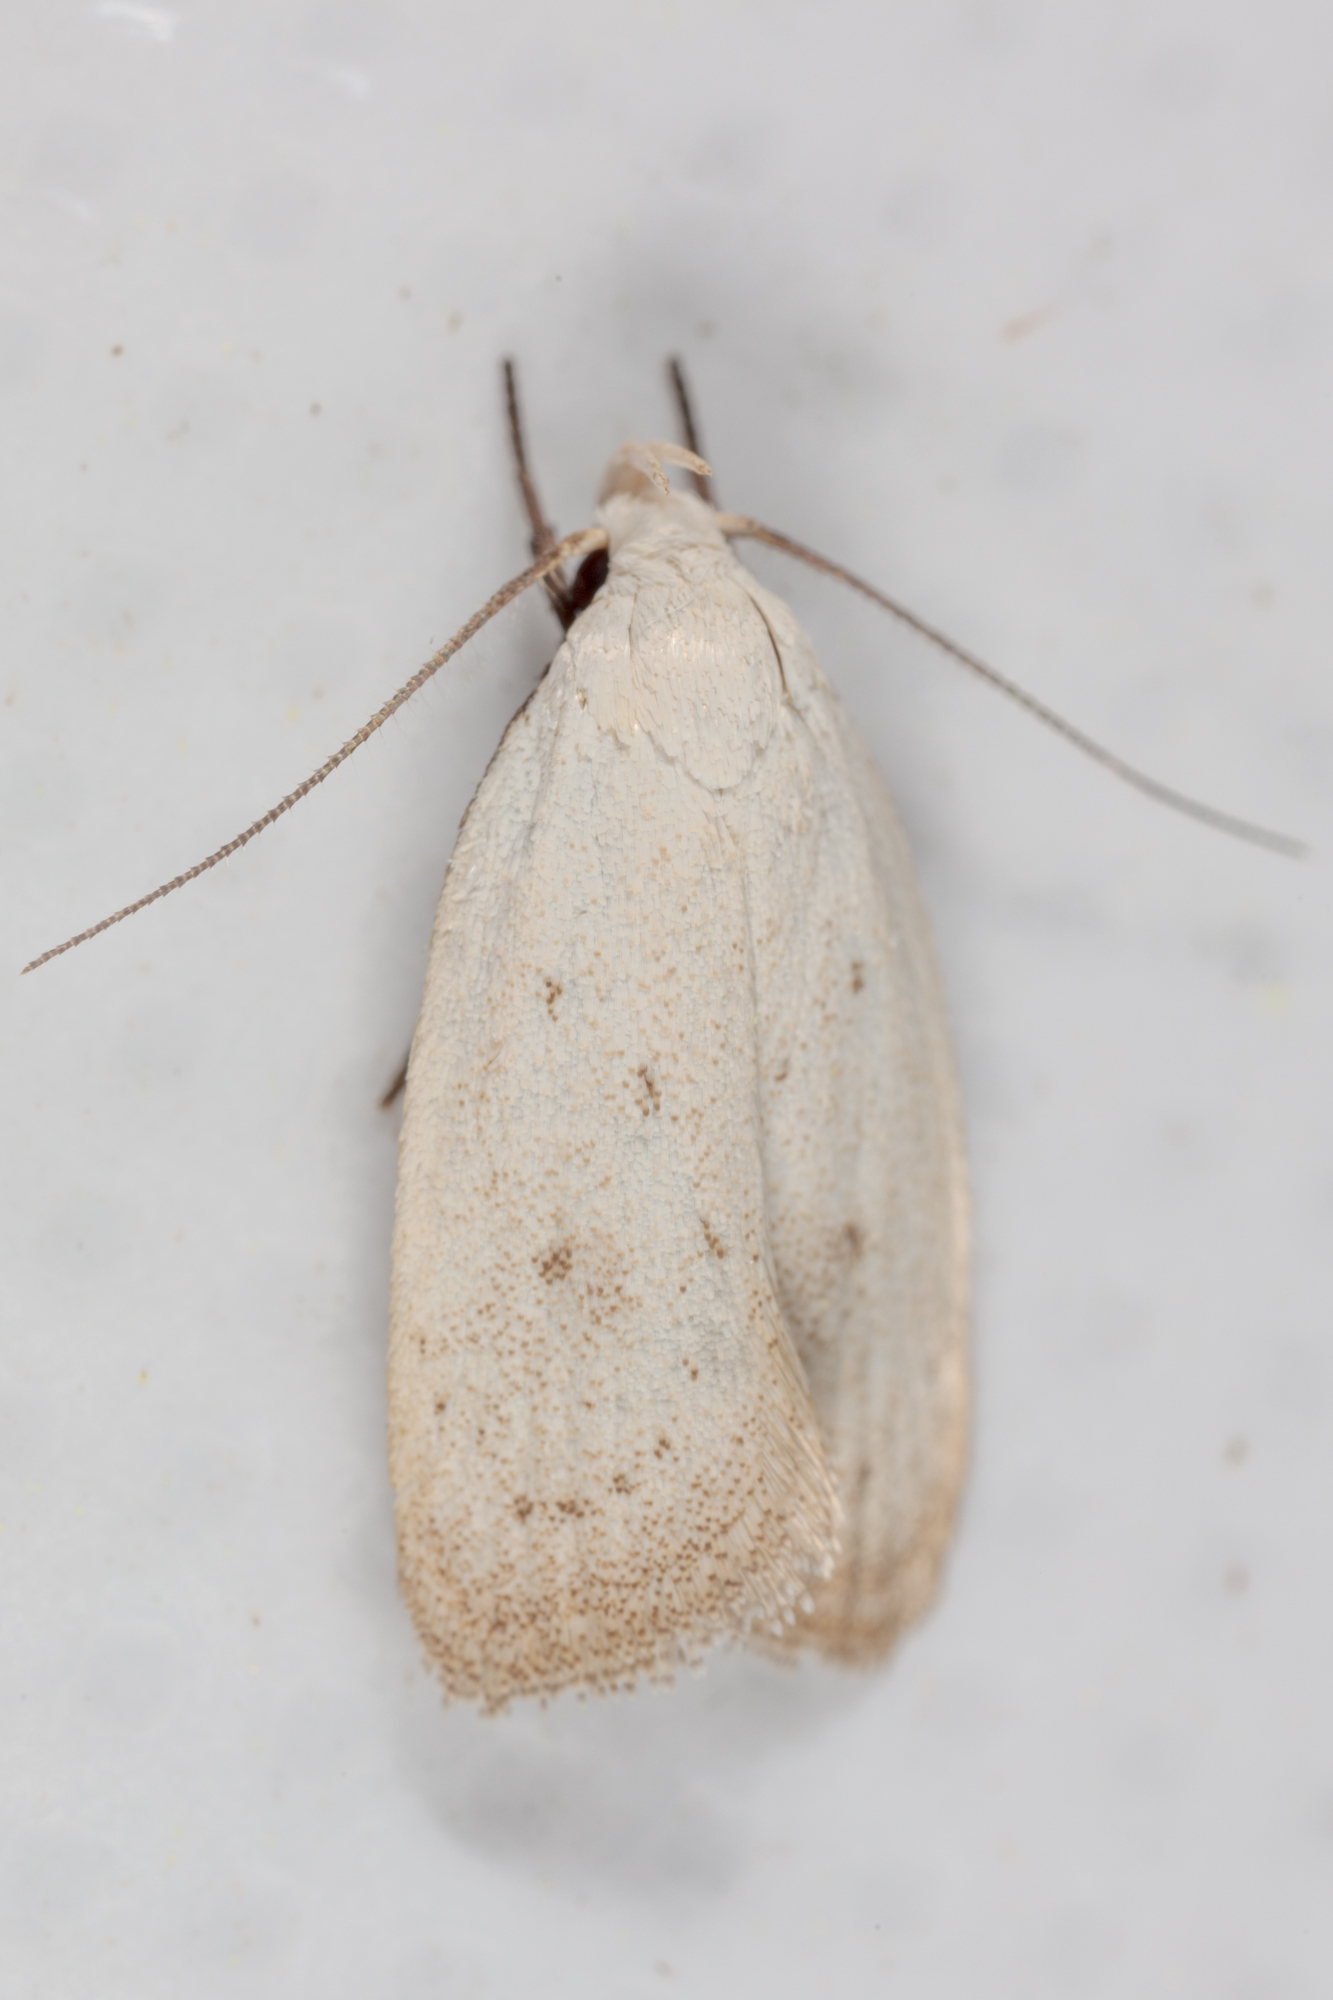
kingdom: Animalia
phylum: Arthropoda
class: Insecta
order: Lepidoptera
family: Oecophoridae
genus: Inga
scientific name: Inga cretacea
